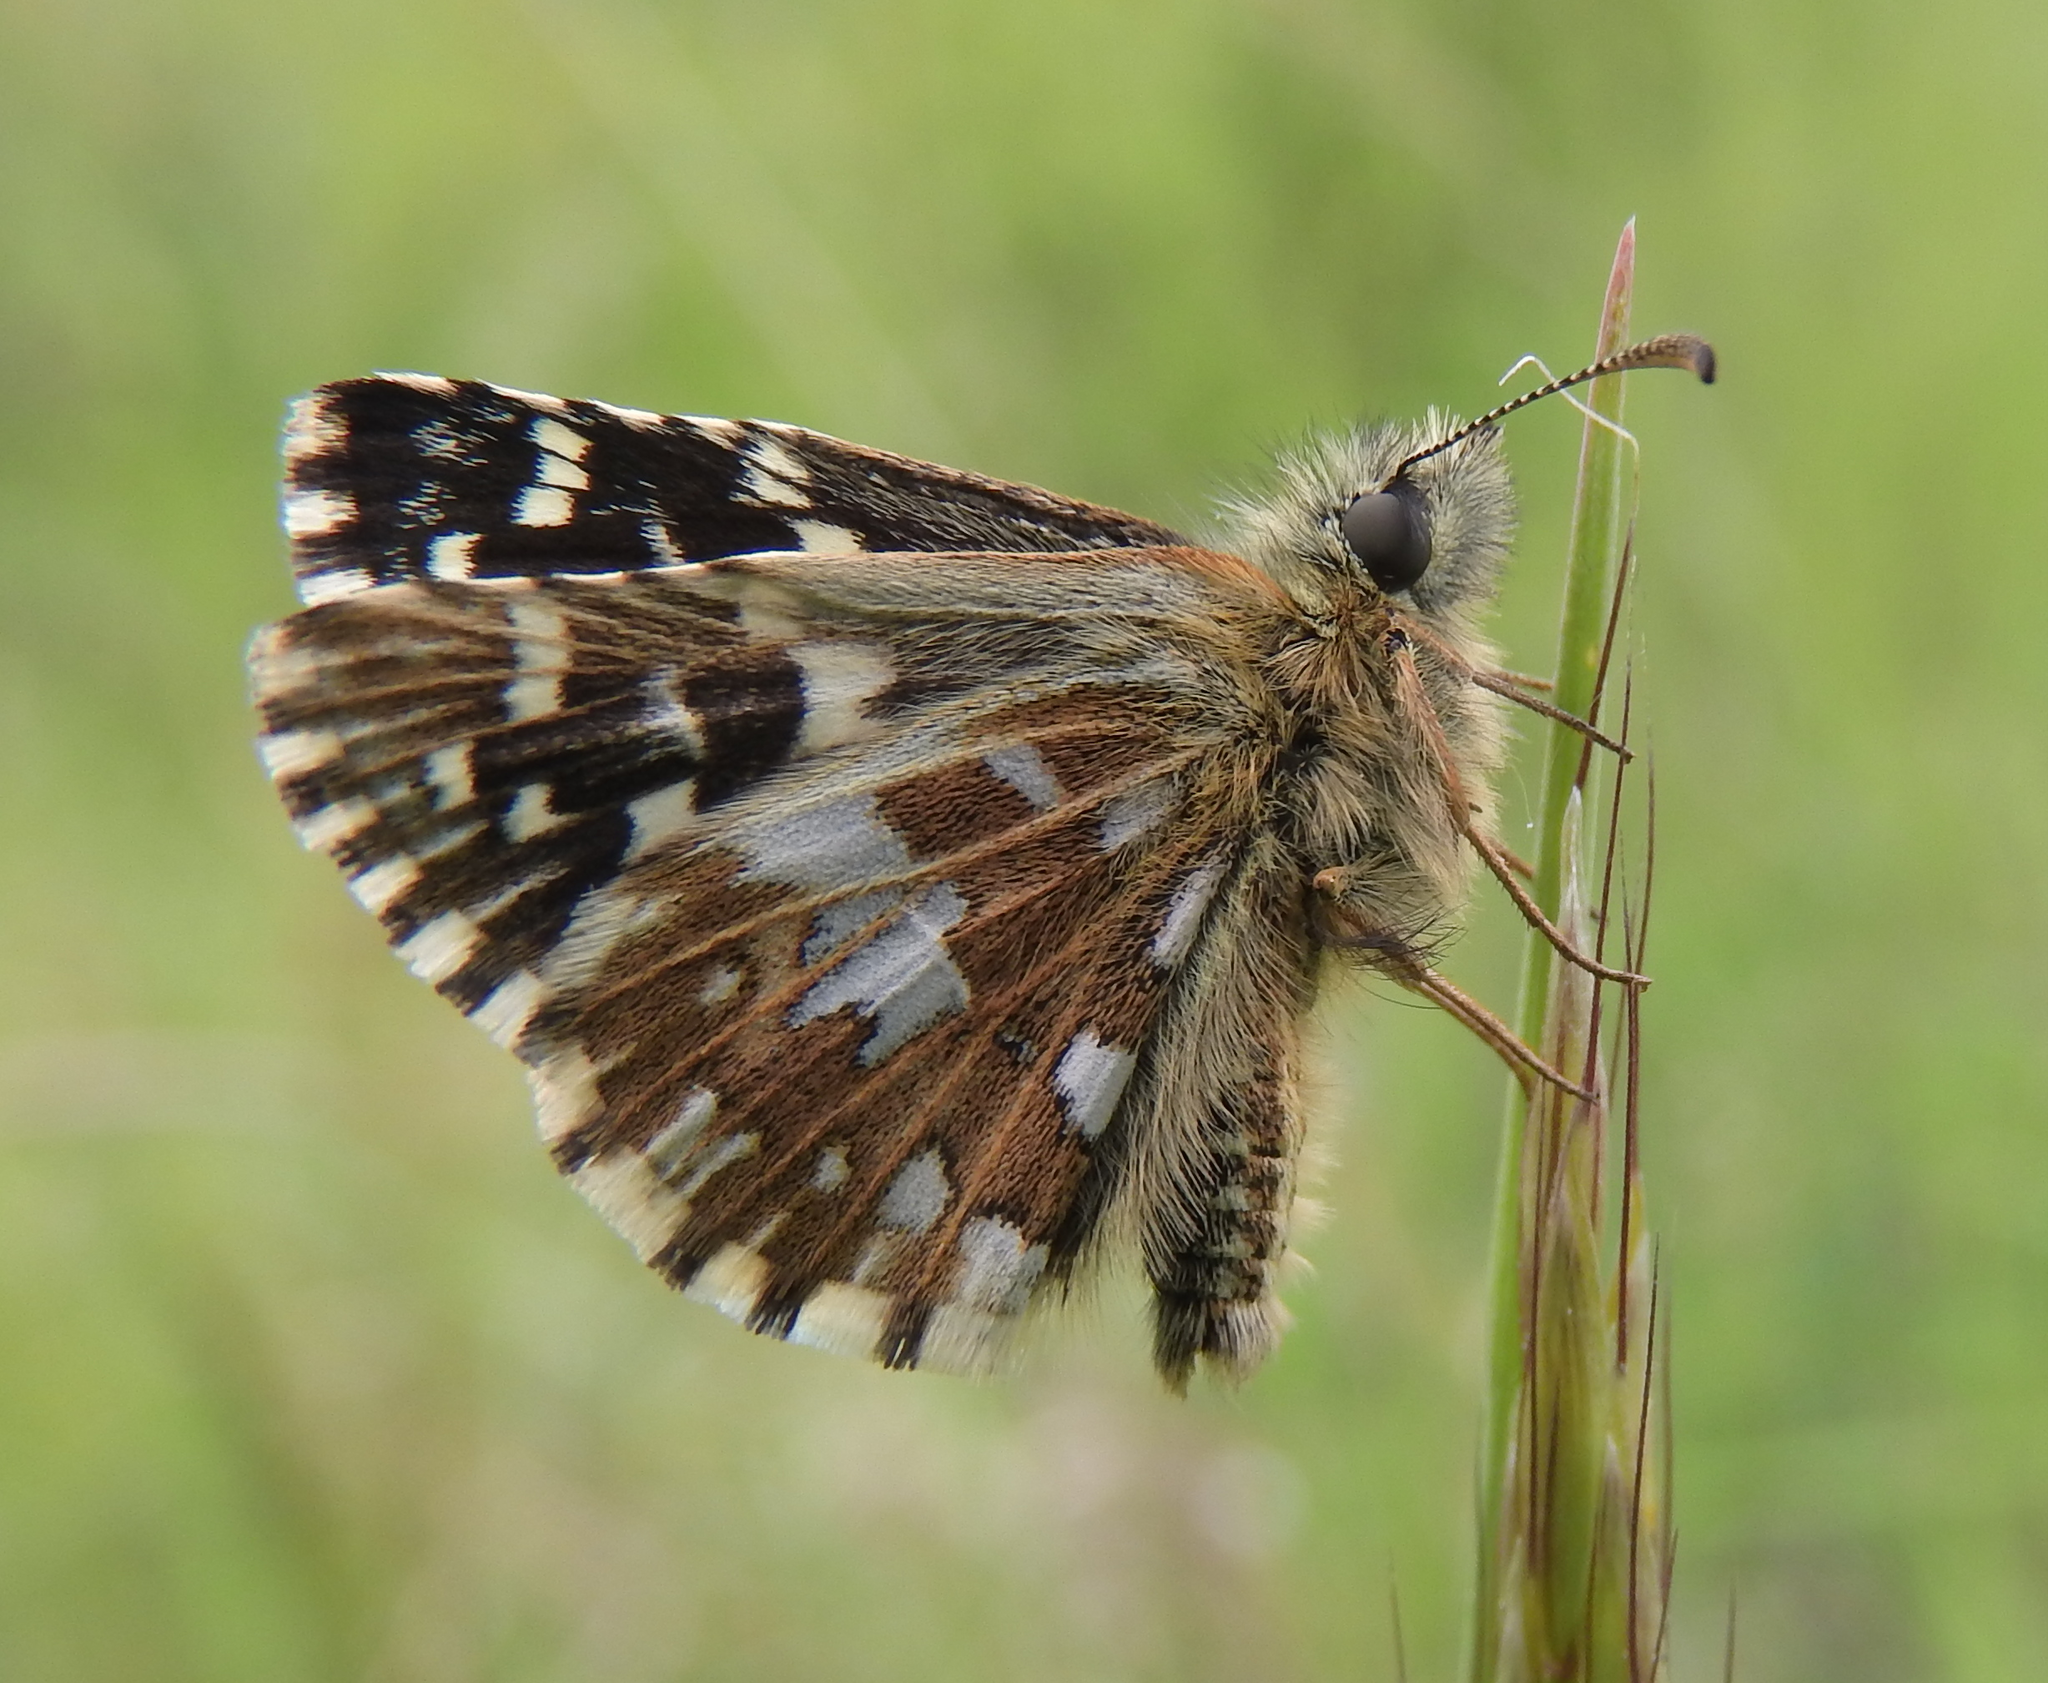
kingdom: Animalia
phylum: Arthropoda
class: Insecta
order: Lepidoptera
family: Hesperiidae
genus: Pyrgus
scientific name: Pyrgus malvae
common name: Grizzled skipper
